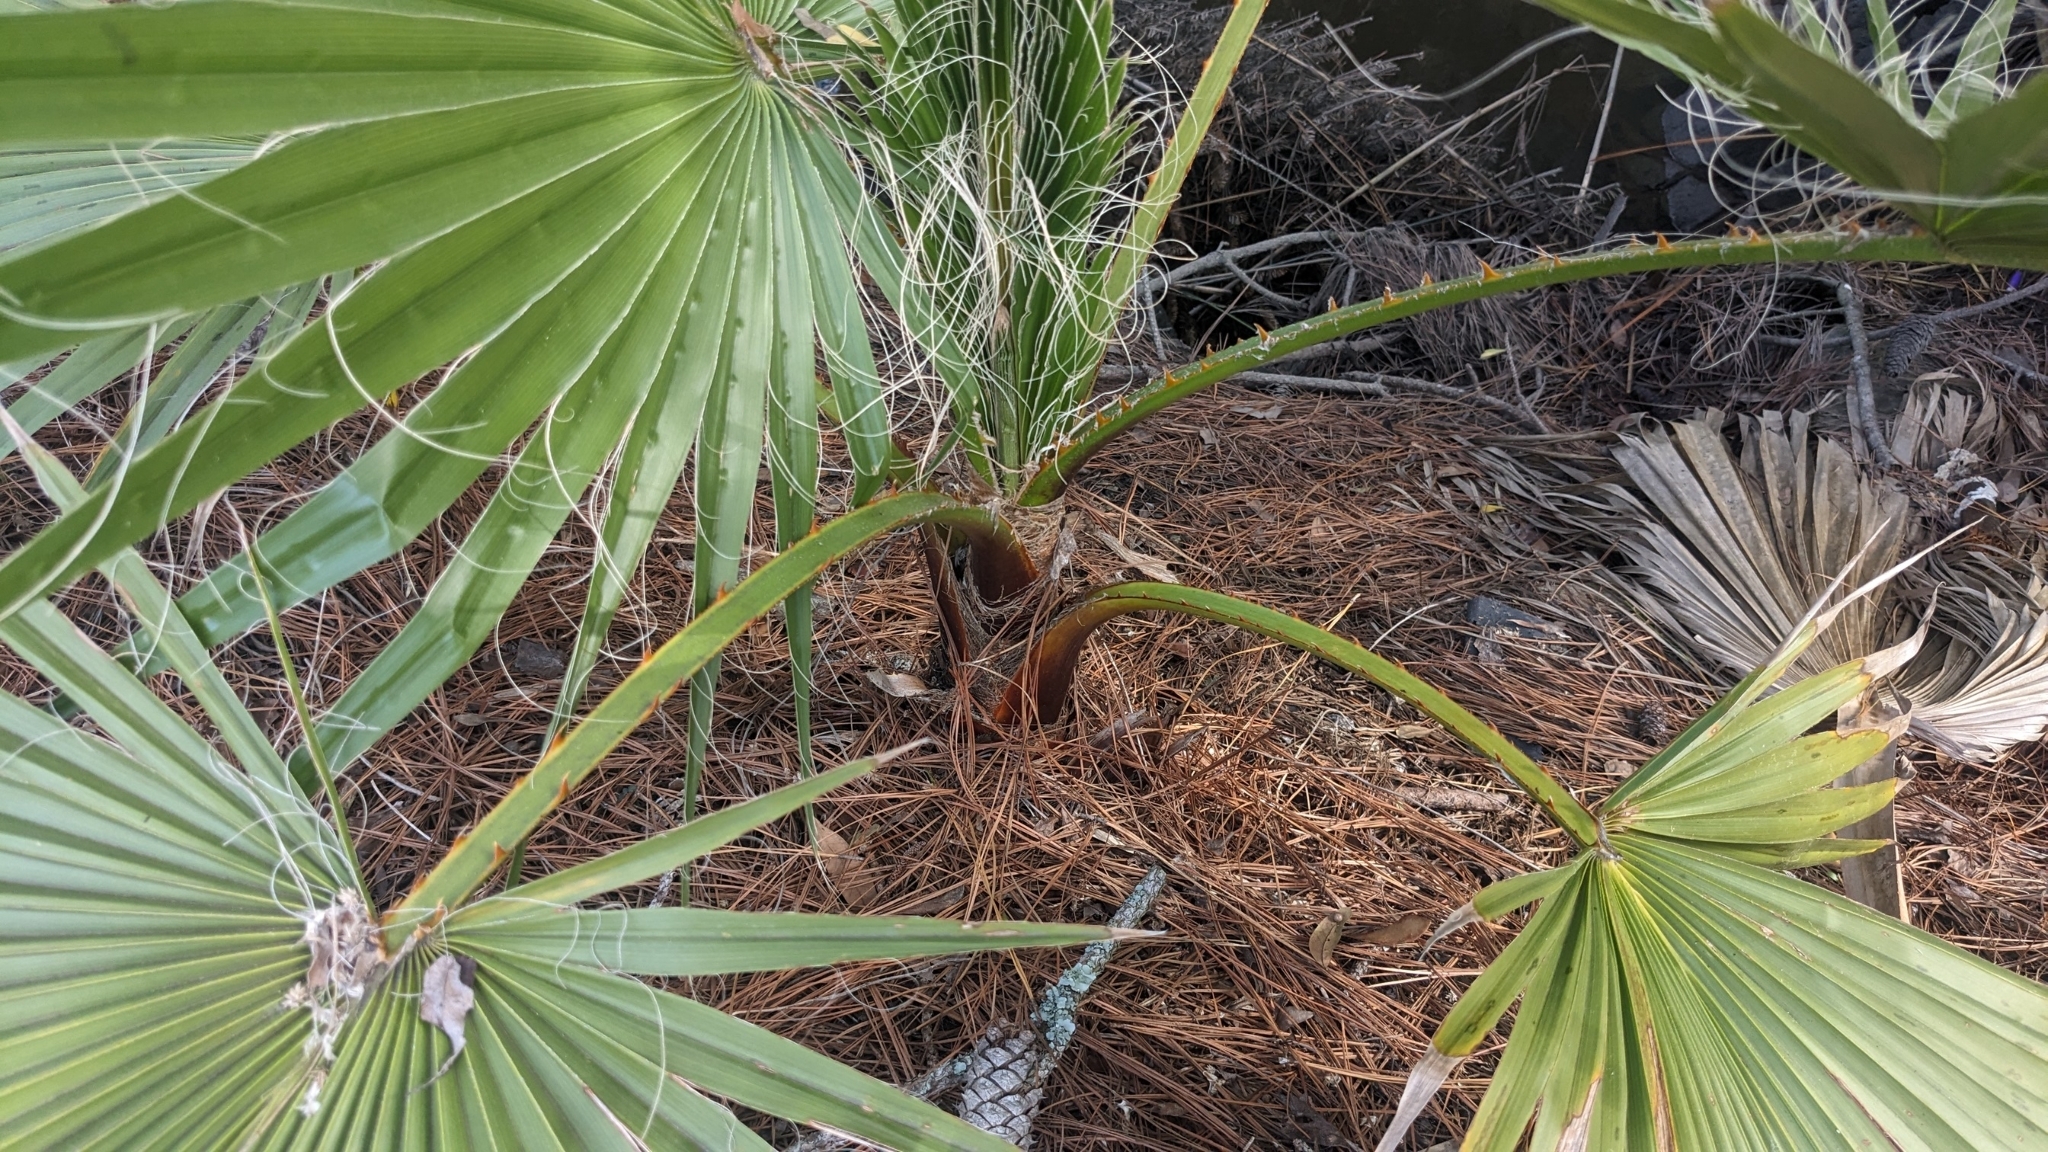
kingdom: Plantae
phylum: Tracheophyta
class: Liliopsida
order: Arecales
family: Arecaceae
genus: Washingtonia
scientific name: Washingtonia robusta
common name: Mexican fan palm
